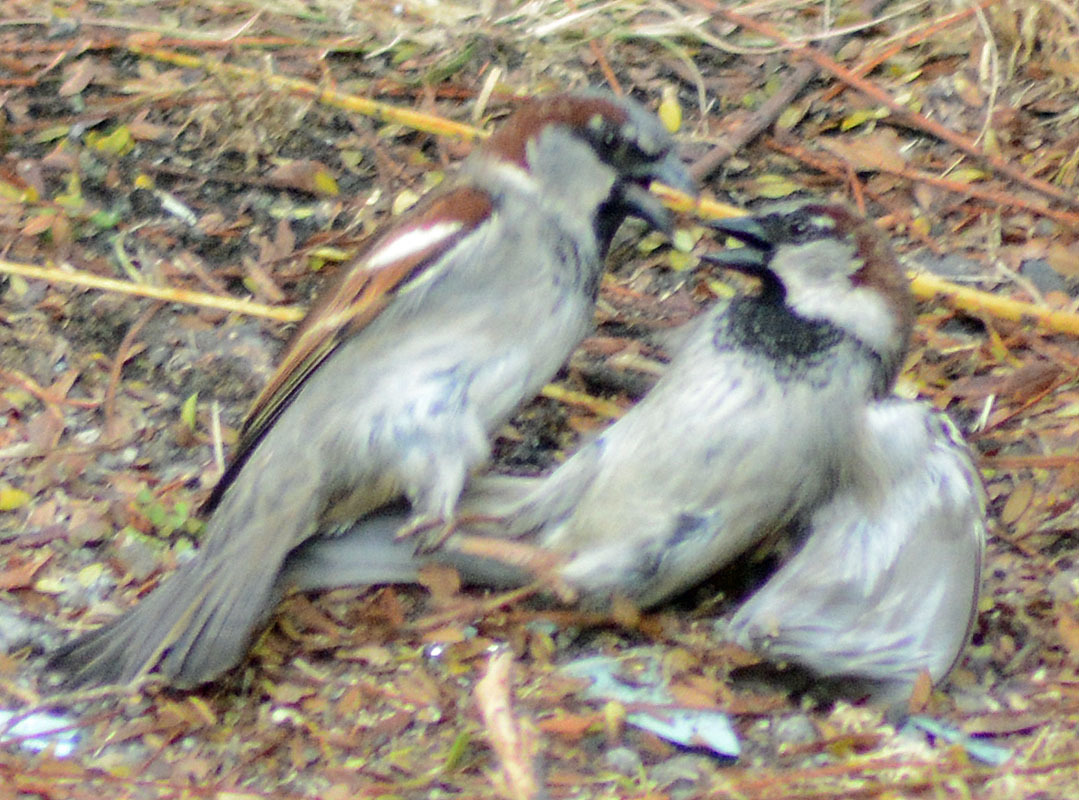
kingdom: Animalia
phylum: Chordata
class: Aves
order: Passeriformes
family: Passeridae
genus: Passer
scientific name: Passer domesticus
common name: House sparrow
